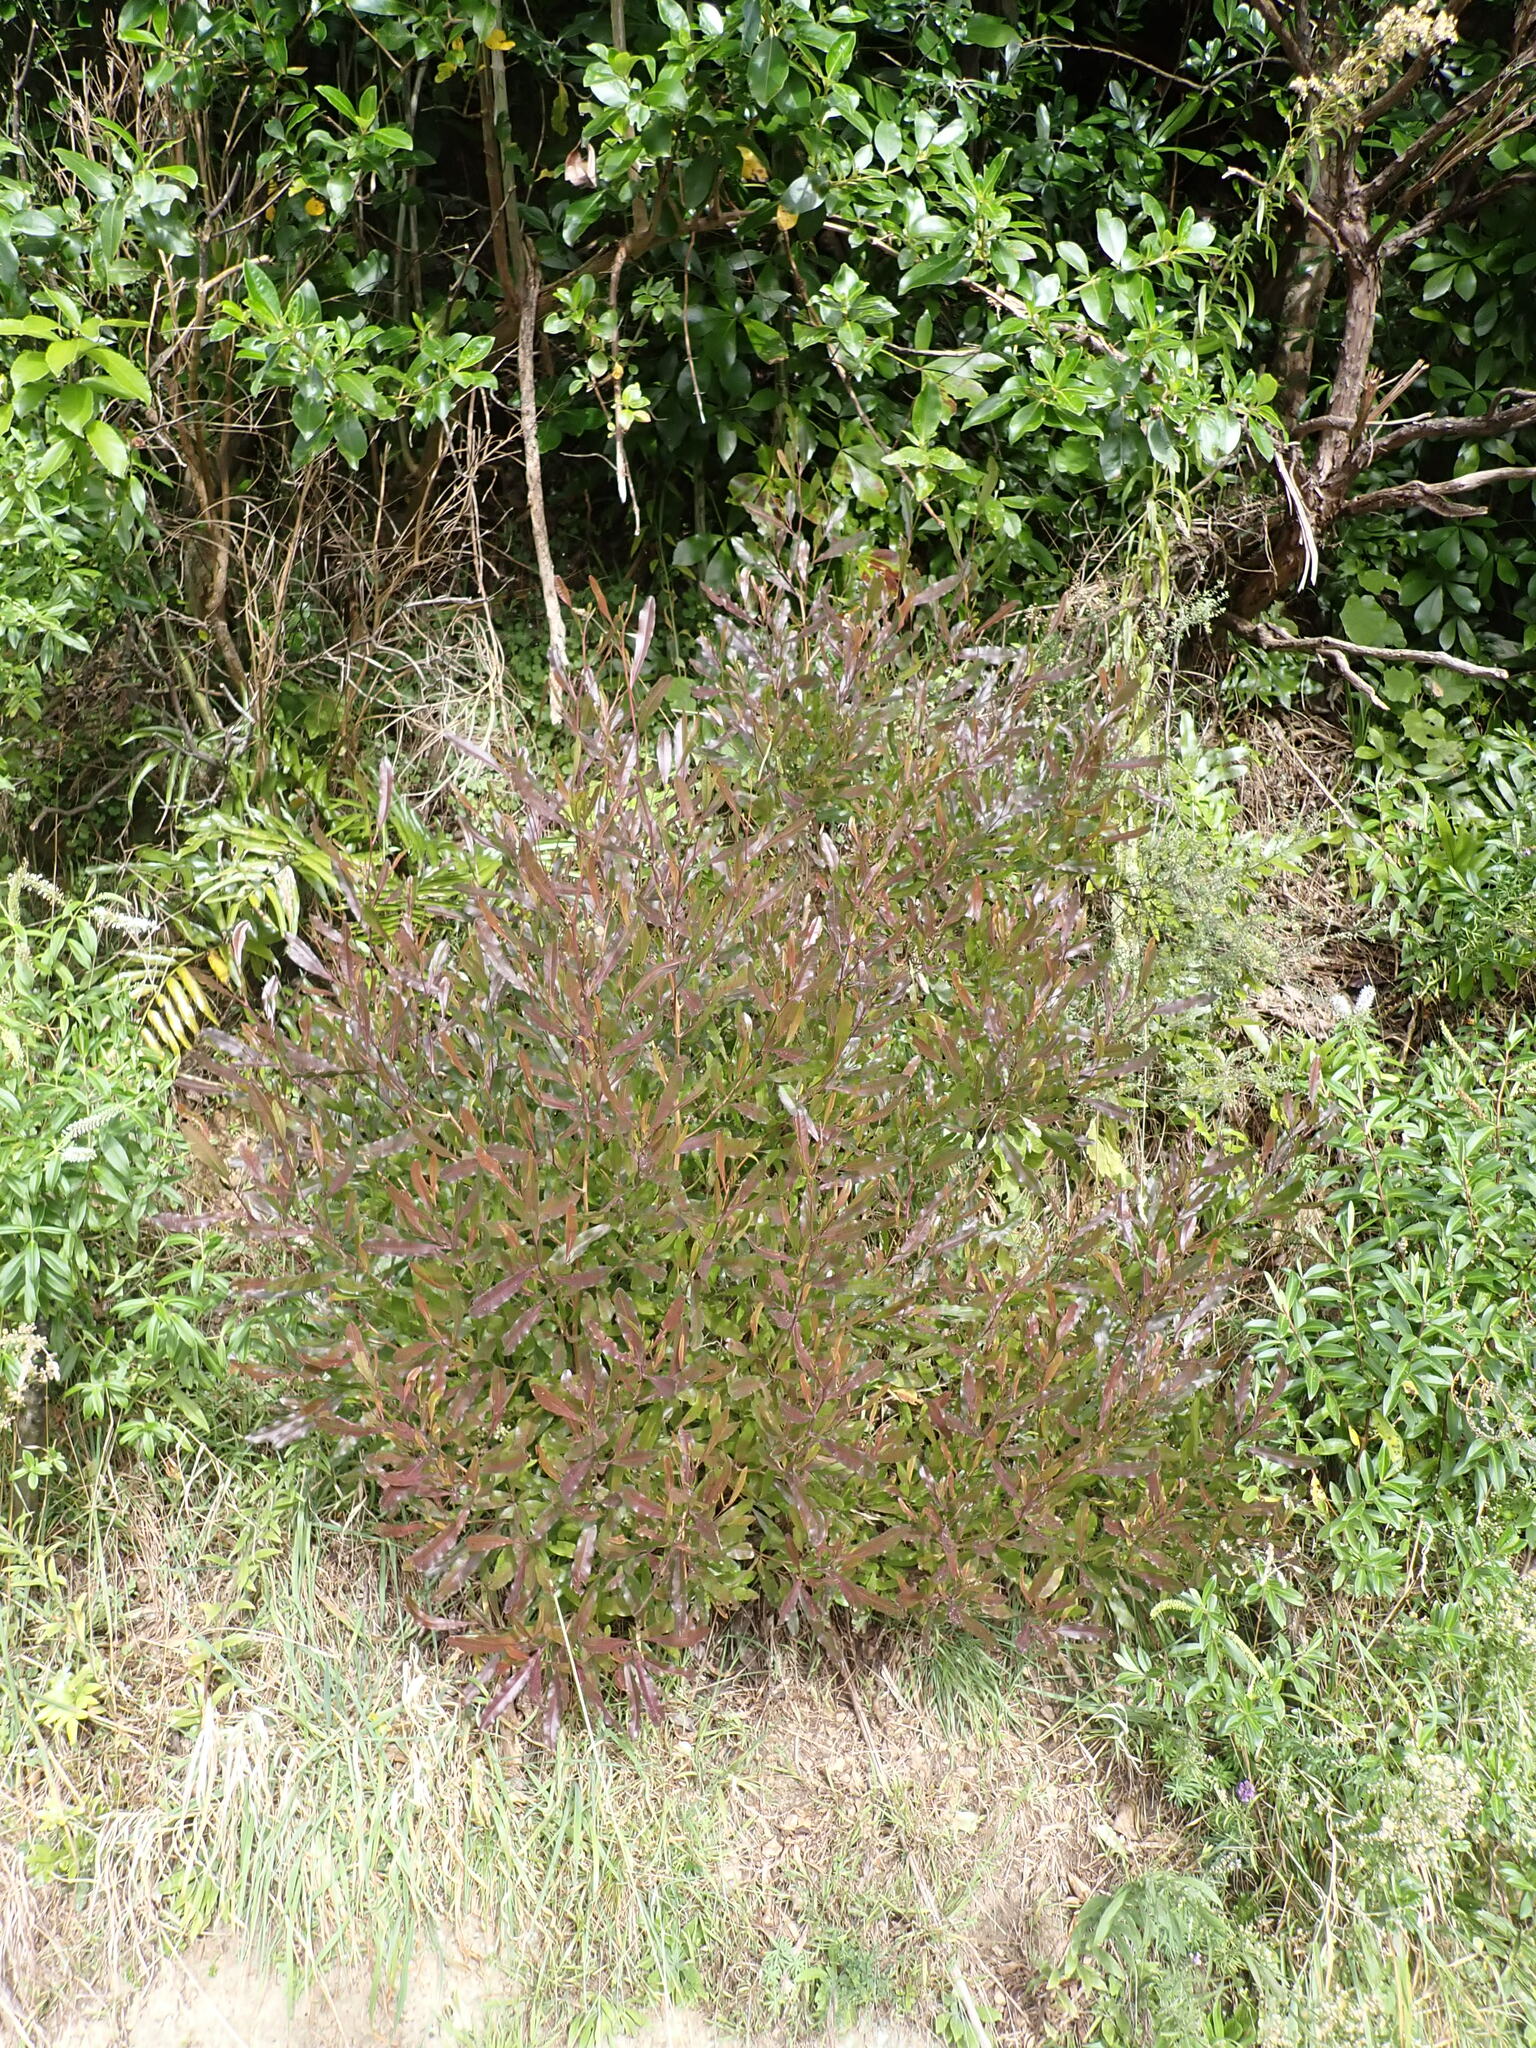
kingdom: Plantae
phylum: Tracheophyta
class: Magnoliopsida
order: Sapindales
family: Sapindaceae
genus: Dodonaea
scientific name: Dodonaea viscosa
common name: Hopbush
